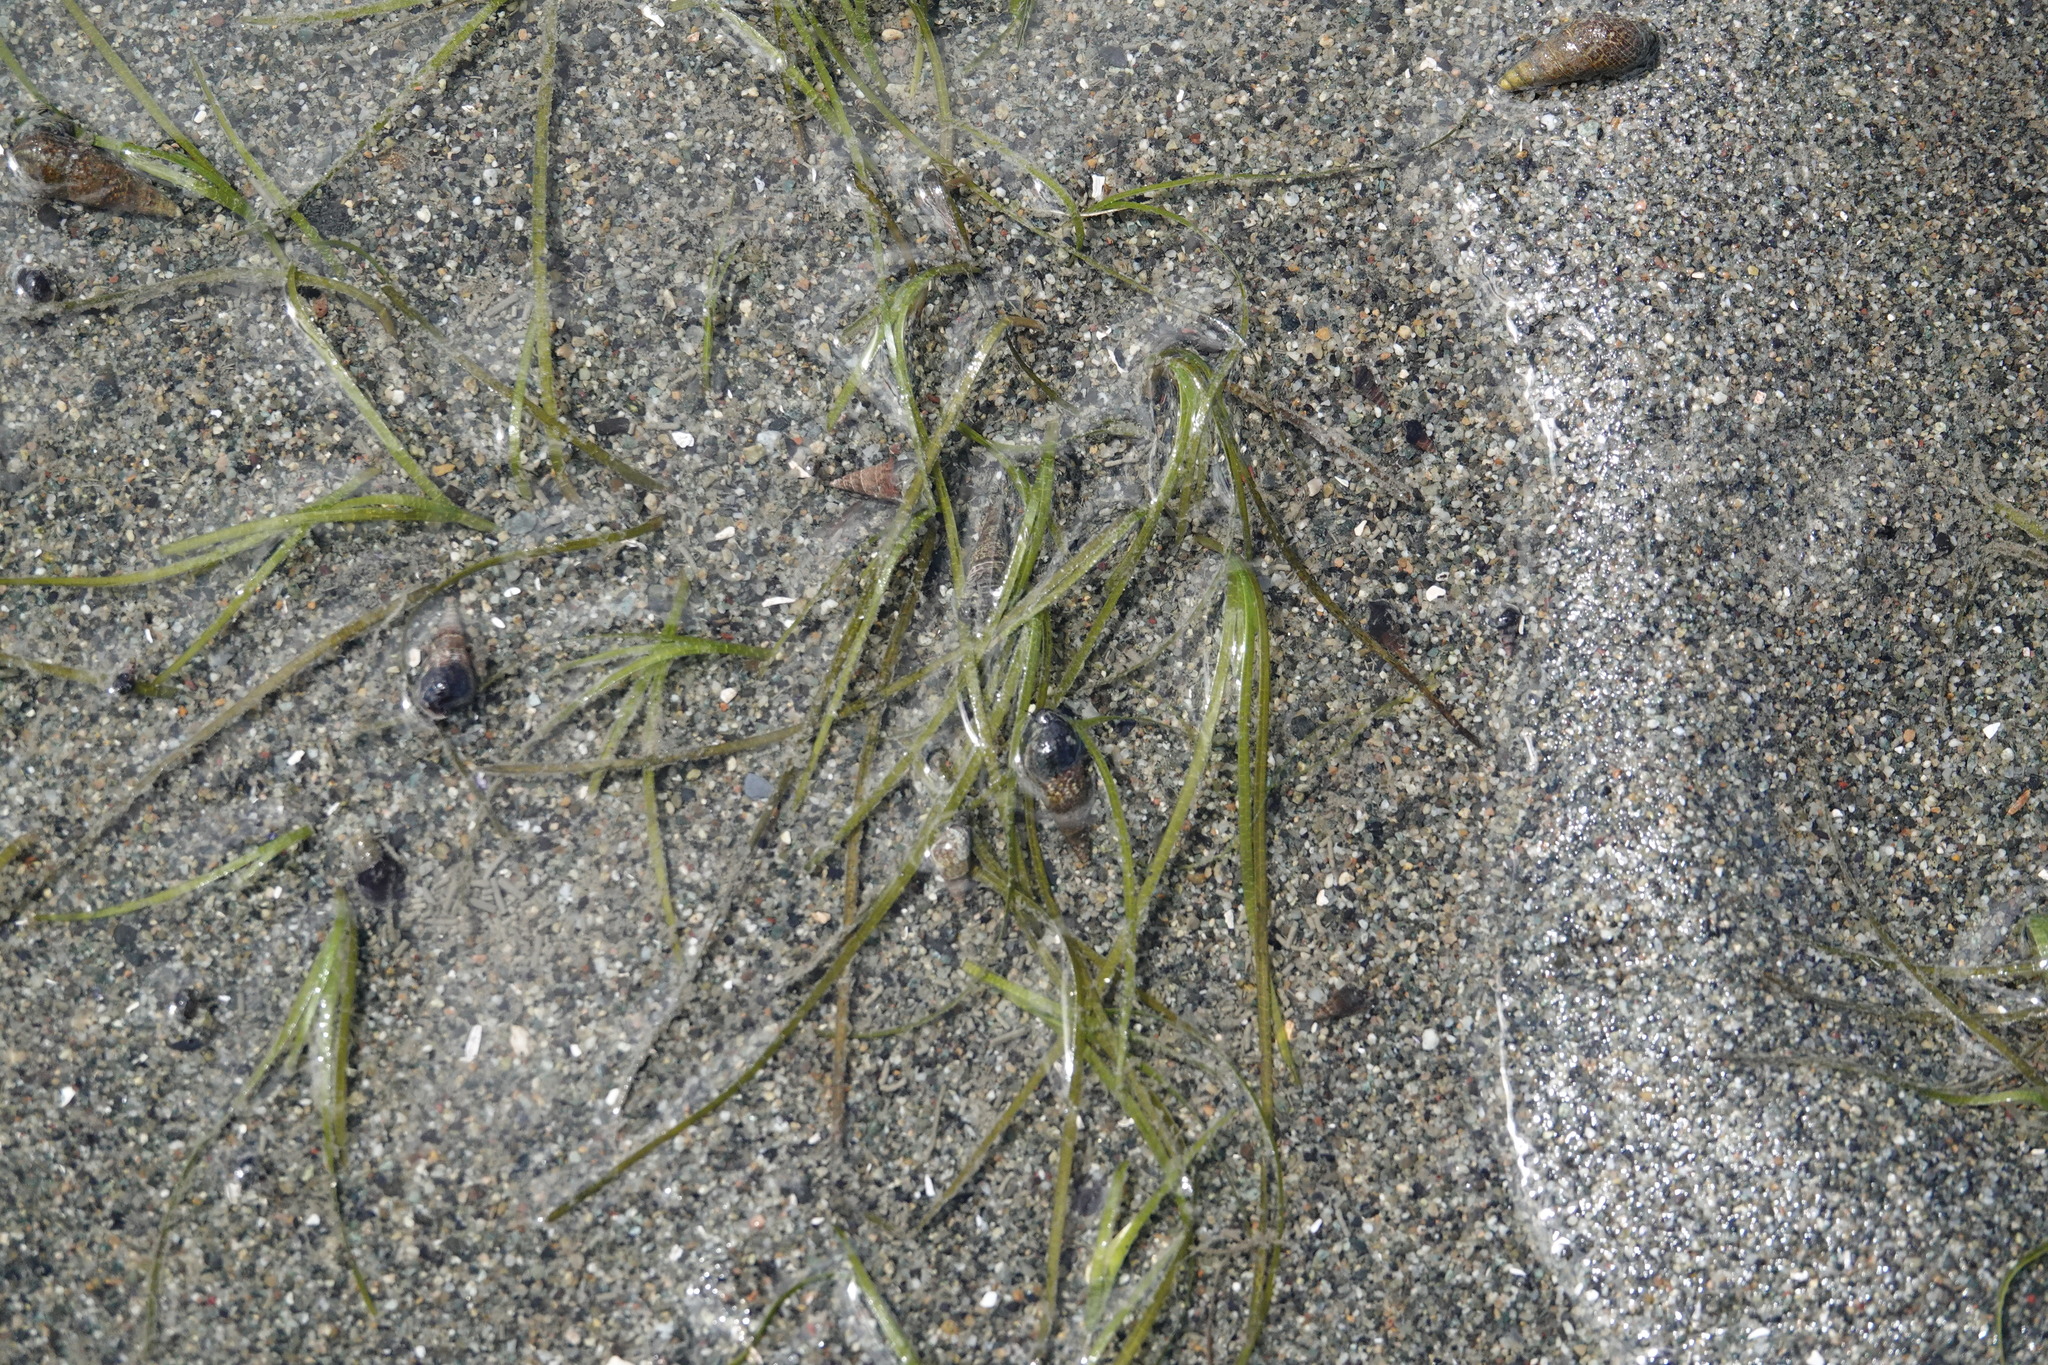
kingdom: Plantae
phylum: Tracheophyta
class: Liliopsida
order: Alismatales
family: Zosteraceae
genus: Zostera
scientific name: Zostera marina
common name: Eelgrass
